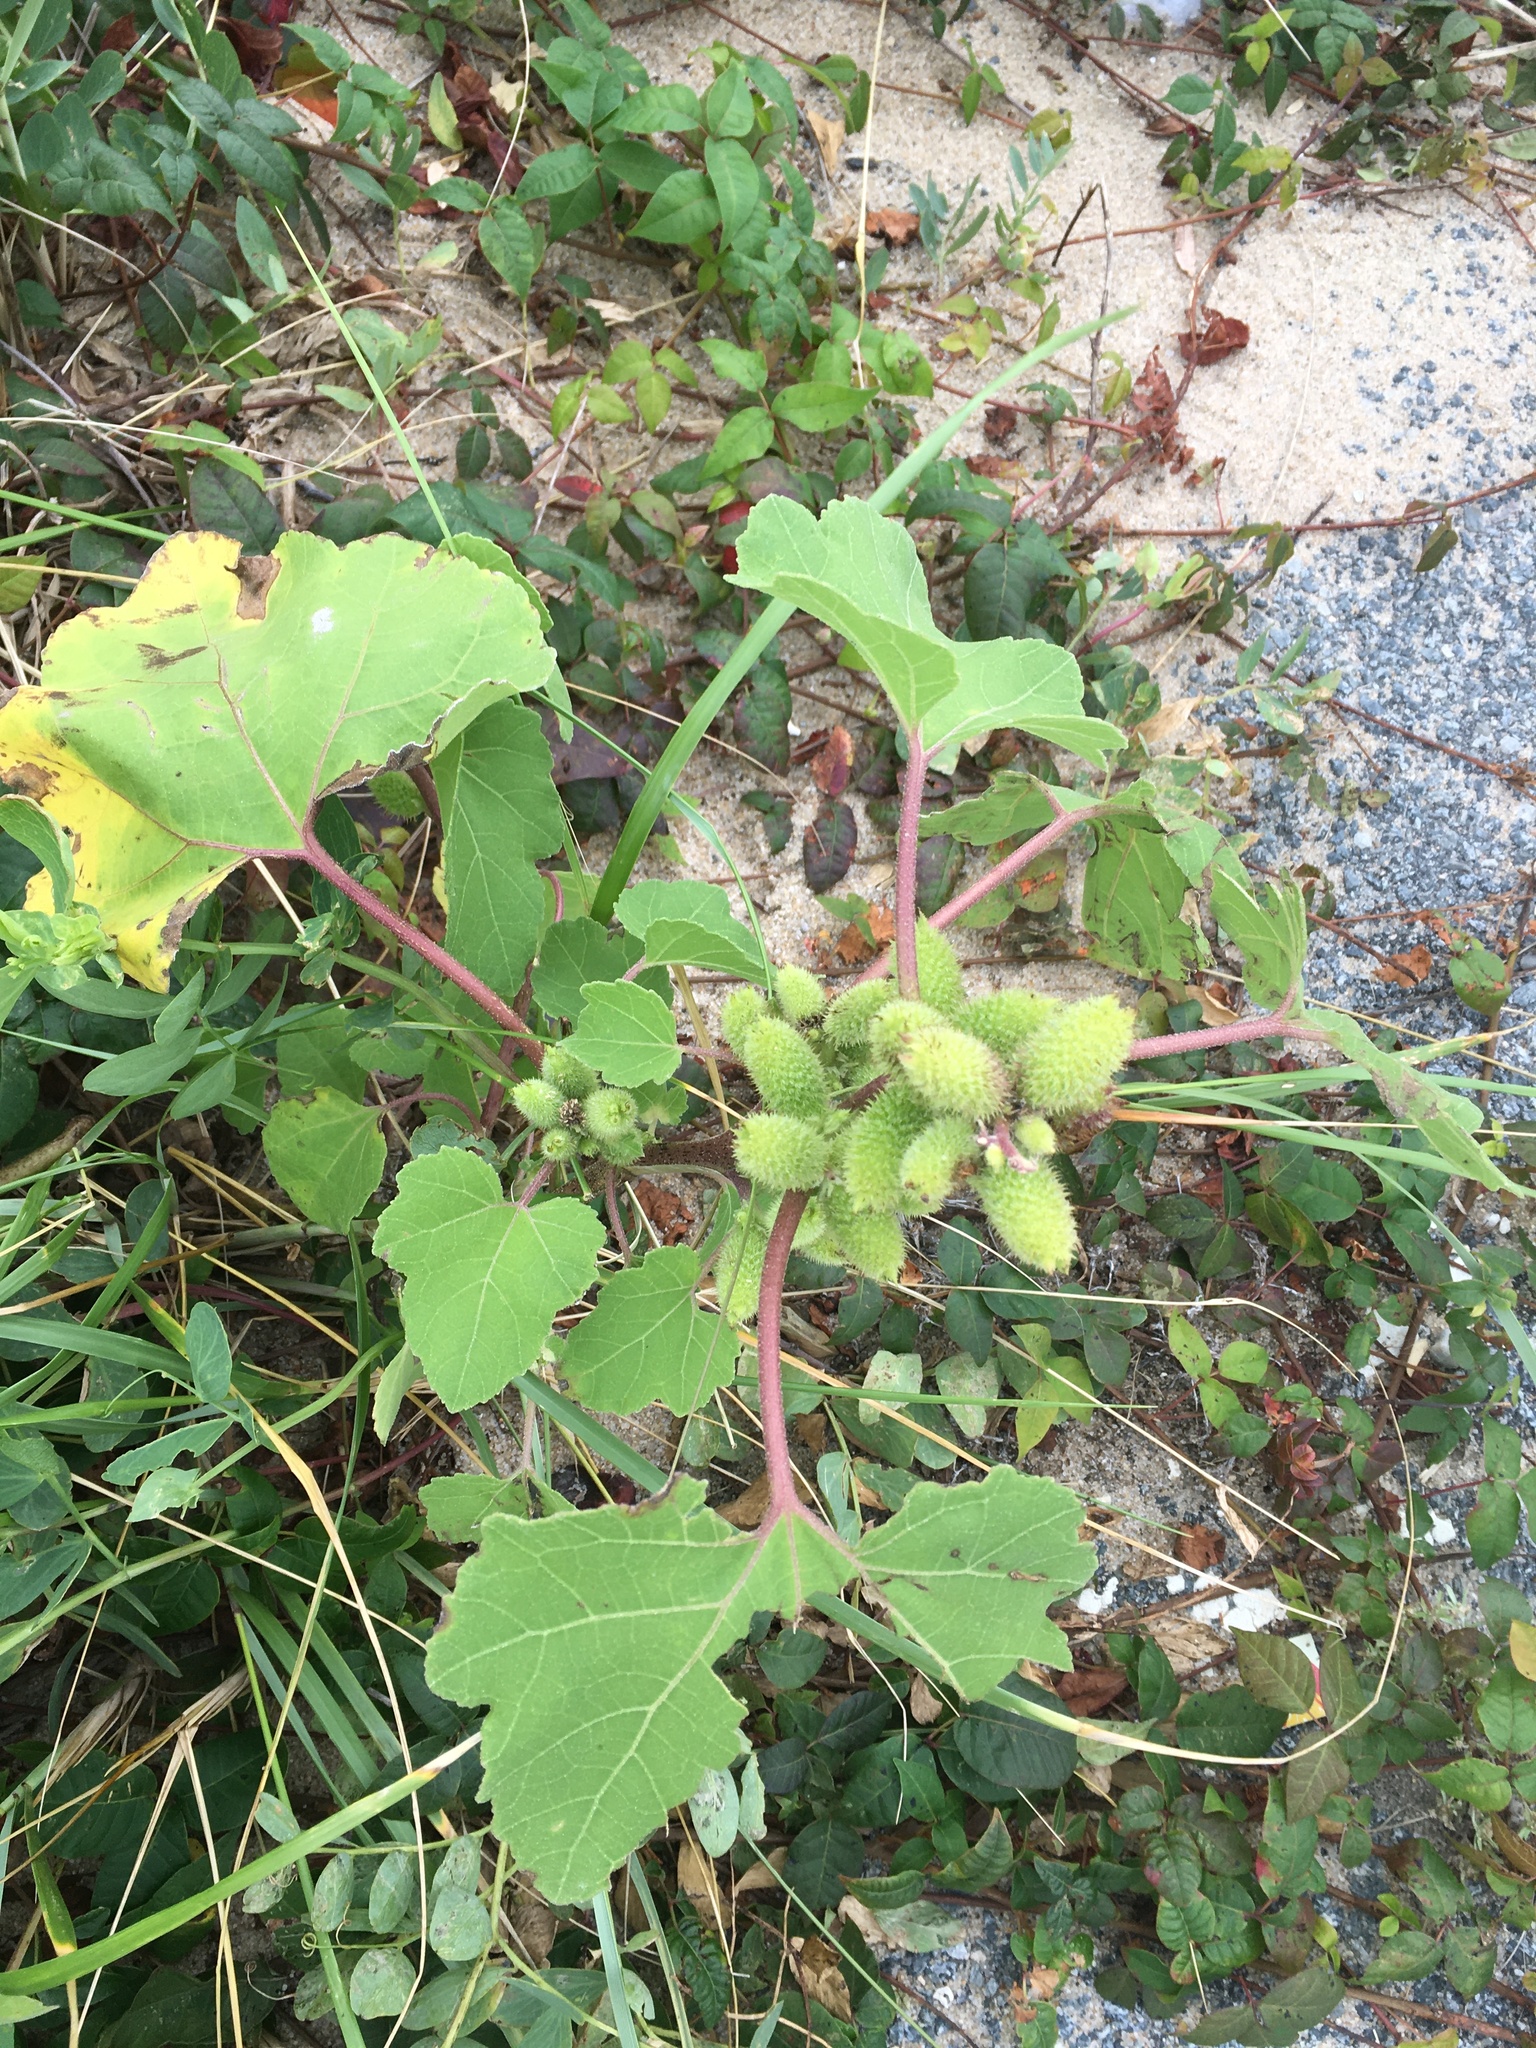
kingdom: Plantae
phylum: Tracheophyta
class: Magnoliopsida
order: Asterales
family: Asteraceae
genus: Xanthium
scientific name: Xanthium strumarium
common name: Rough cocklebur
